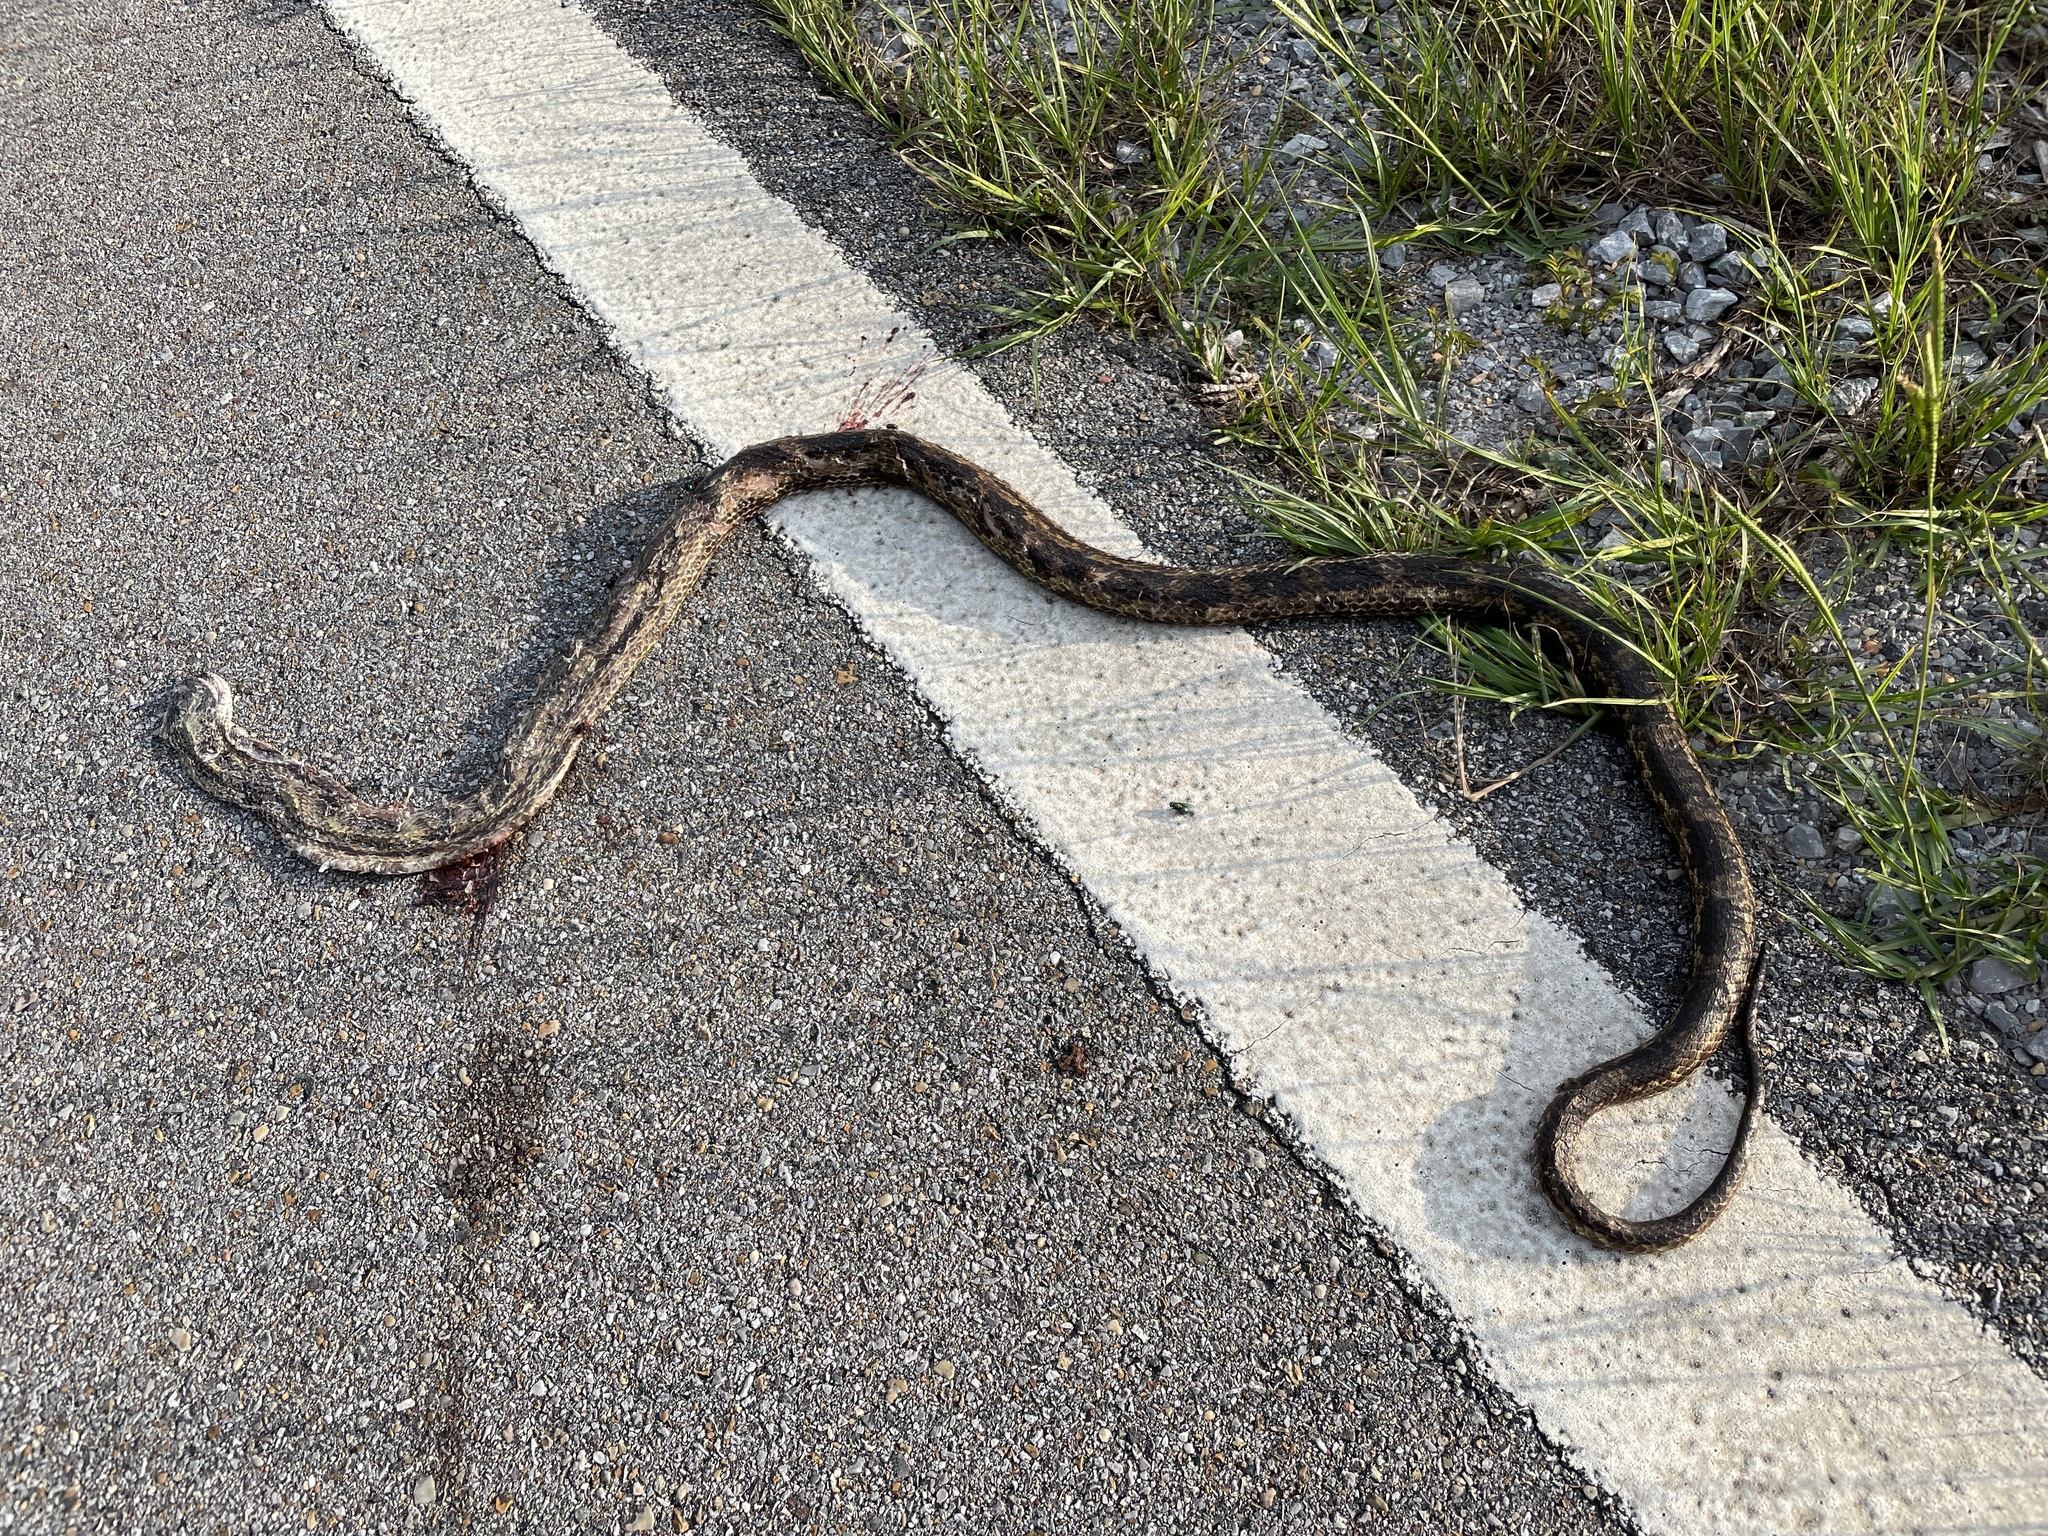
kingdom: Animalia
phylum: Chordata
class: Squamata
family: Colubridae
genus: Pantherophis
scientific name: Pantherophis spiloides
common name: Gray rat snake
